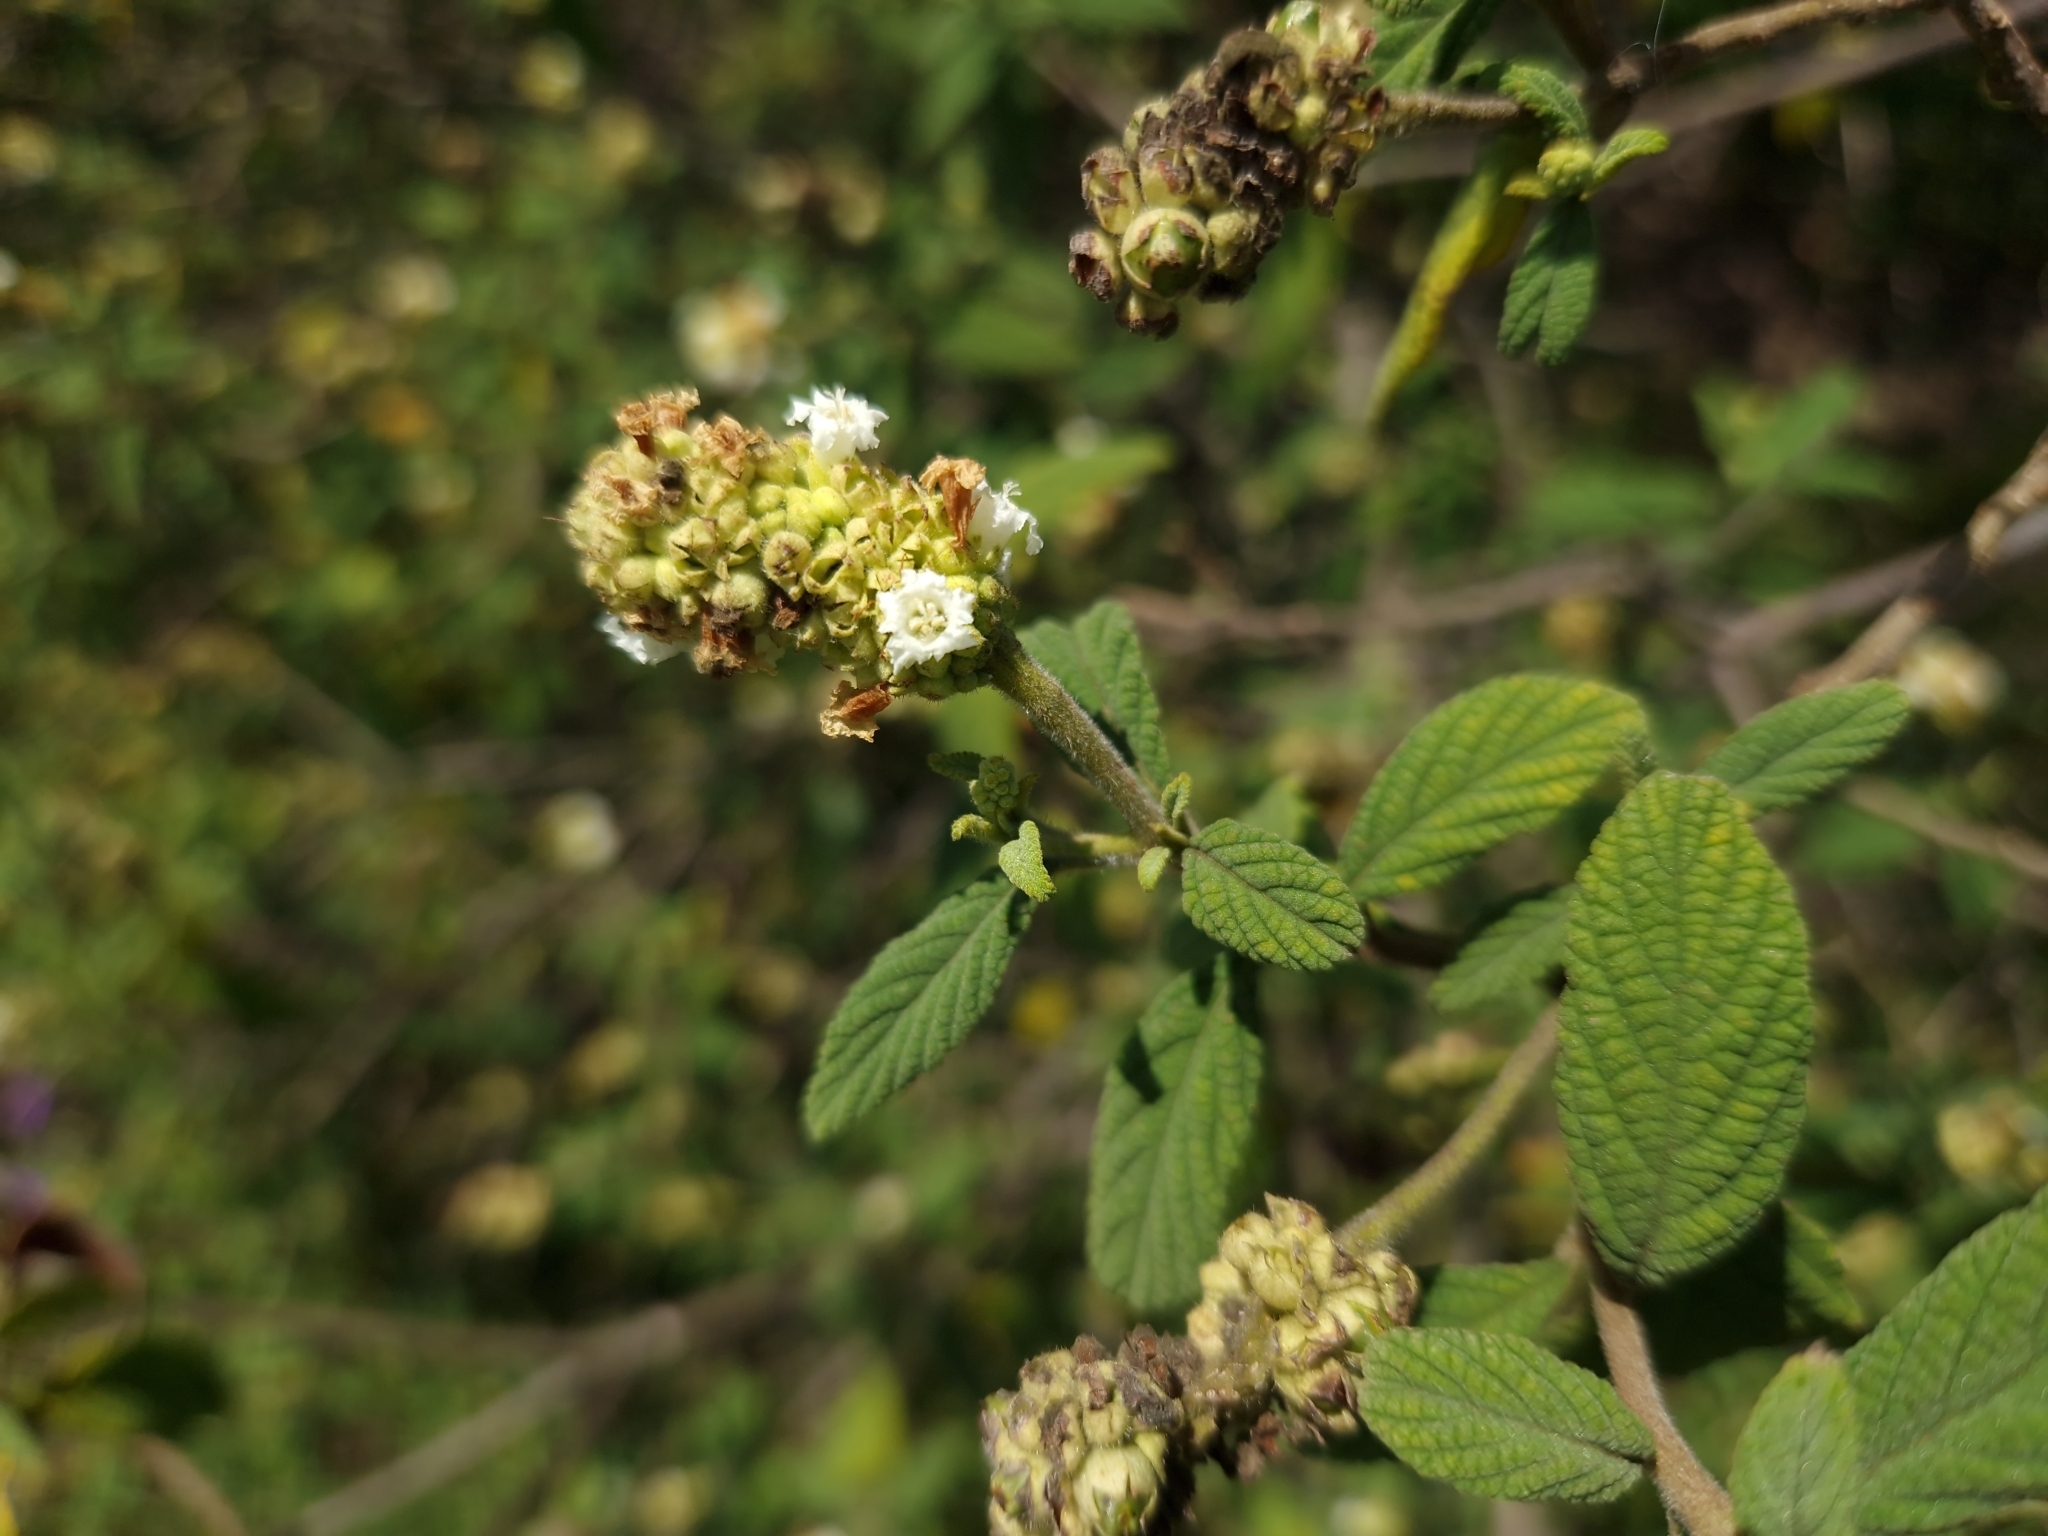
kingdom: Plantae
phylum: Tracheophyta
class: Magnoliopsida
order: Boraginales
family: Cordiaceae
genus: Varronia
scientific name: Varronia curassavica
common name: Black sage
